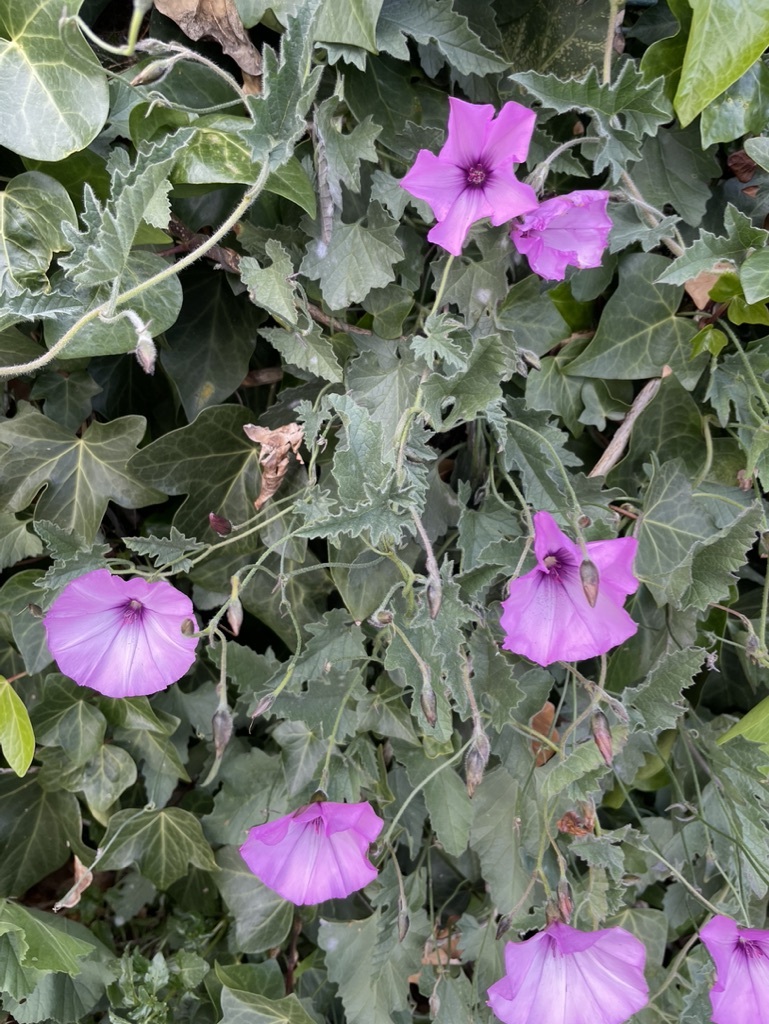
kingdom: Plantae
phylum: Tracheophyta
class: Magnoliopsida
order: Solanales
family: Convolvulaceae
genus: Convolvulus
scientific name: Convolvulus althaeoides
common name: Mallow bindweed
